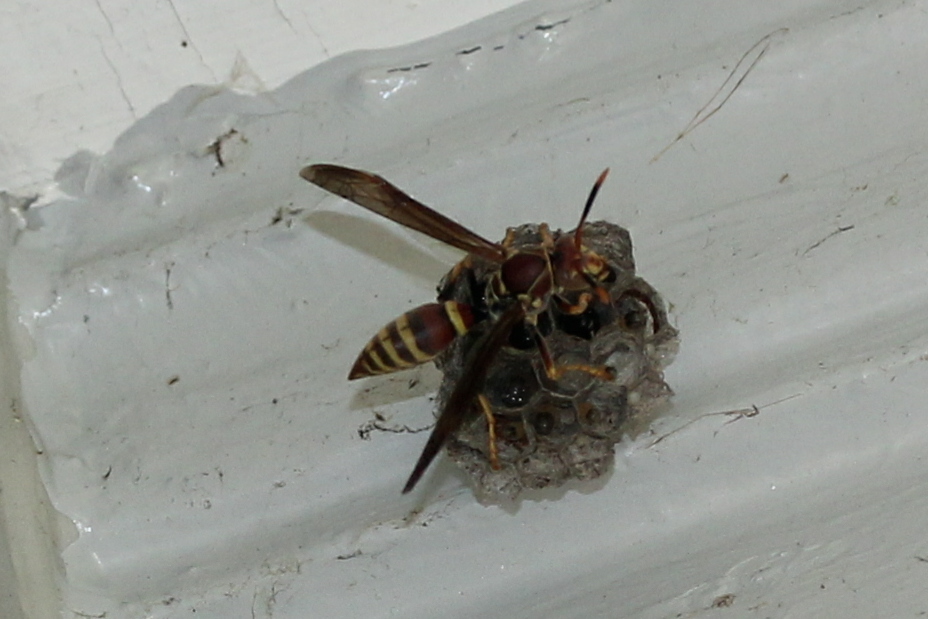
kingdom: Animalia
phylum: Arthropoda
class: Insecta
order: Hymenoptera
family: Eumenidae
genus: Polistes
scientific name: Polistes exclamans
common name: Paper wasp
